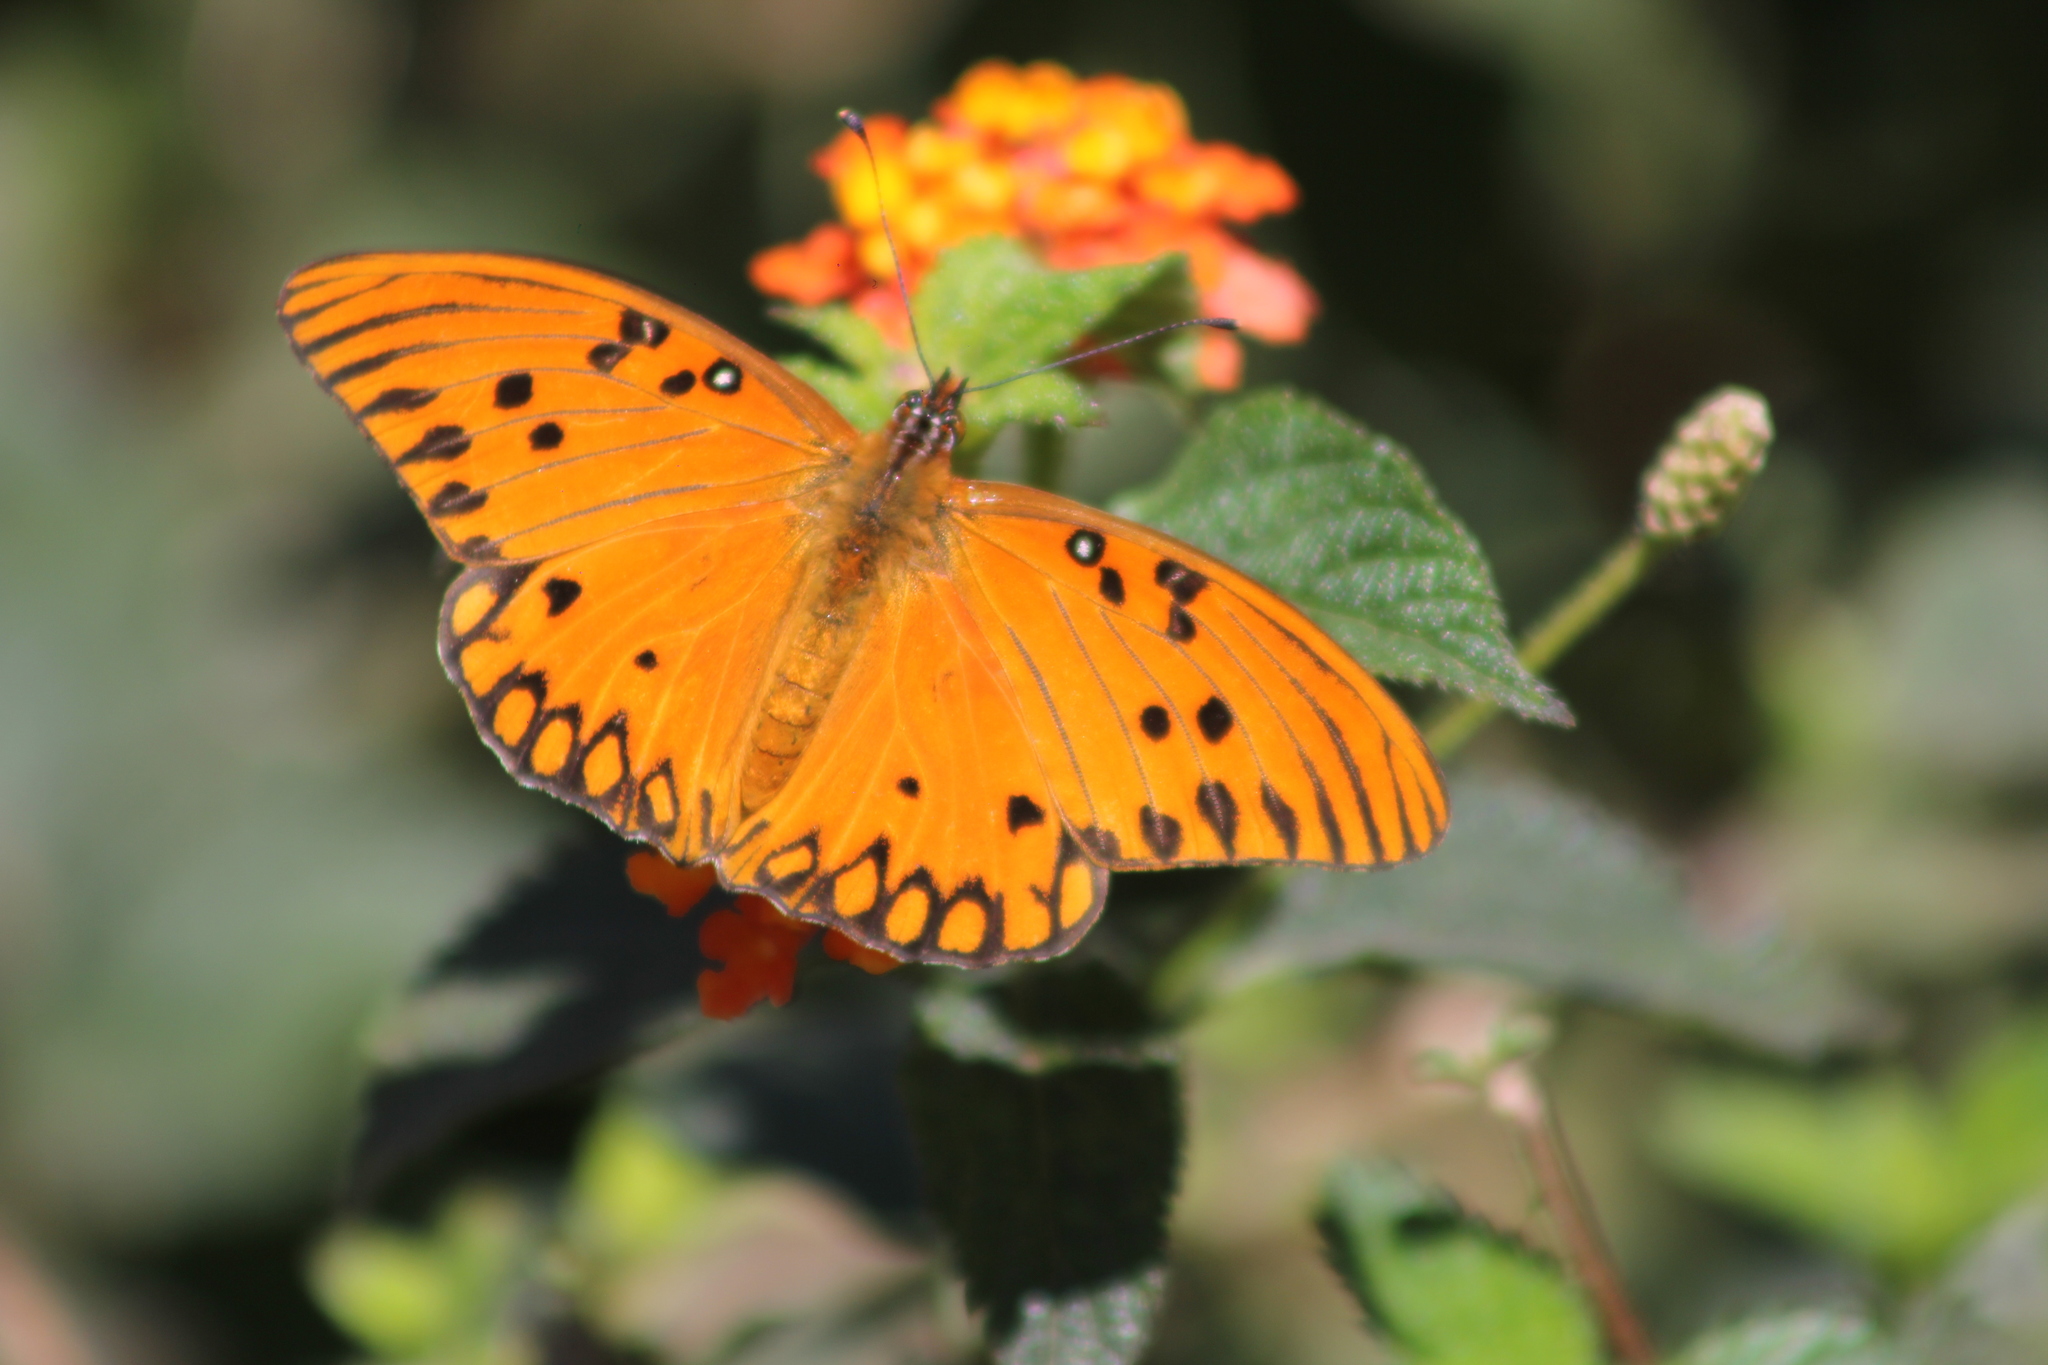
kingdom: Animalia
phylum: Arthropoda
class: Insecta
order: Lepidoptera
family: Nymphalidae
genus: Dione
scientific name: Dione vanillae
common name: Gulf fritillary
